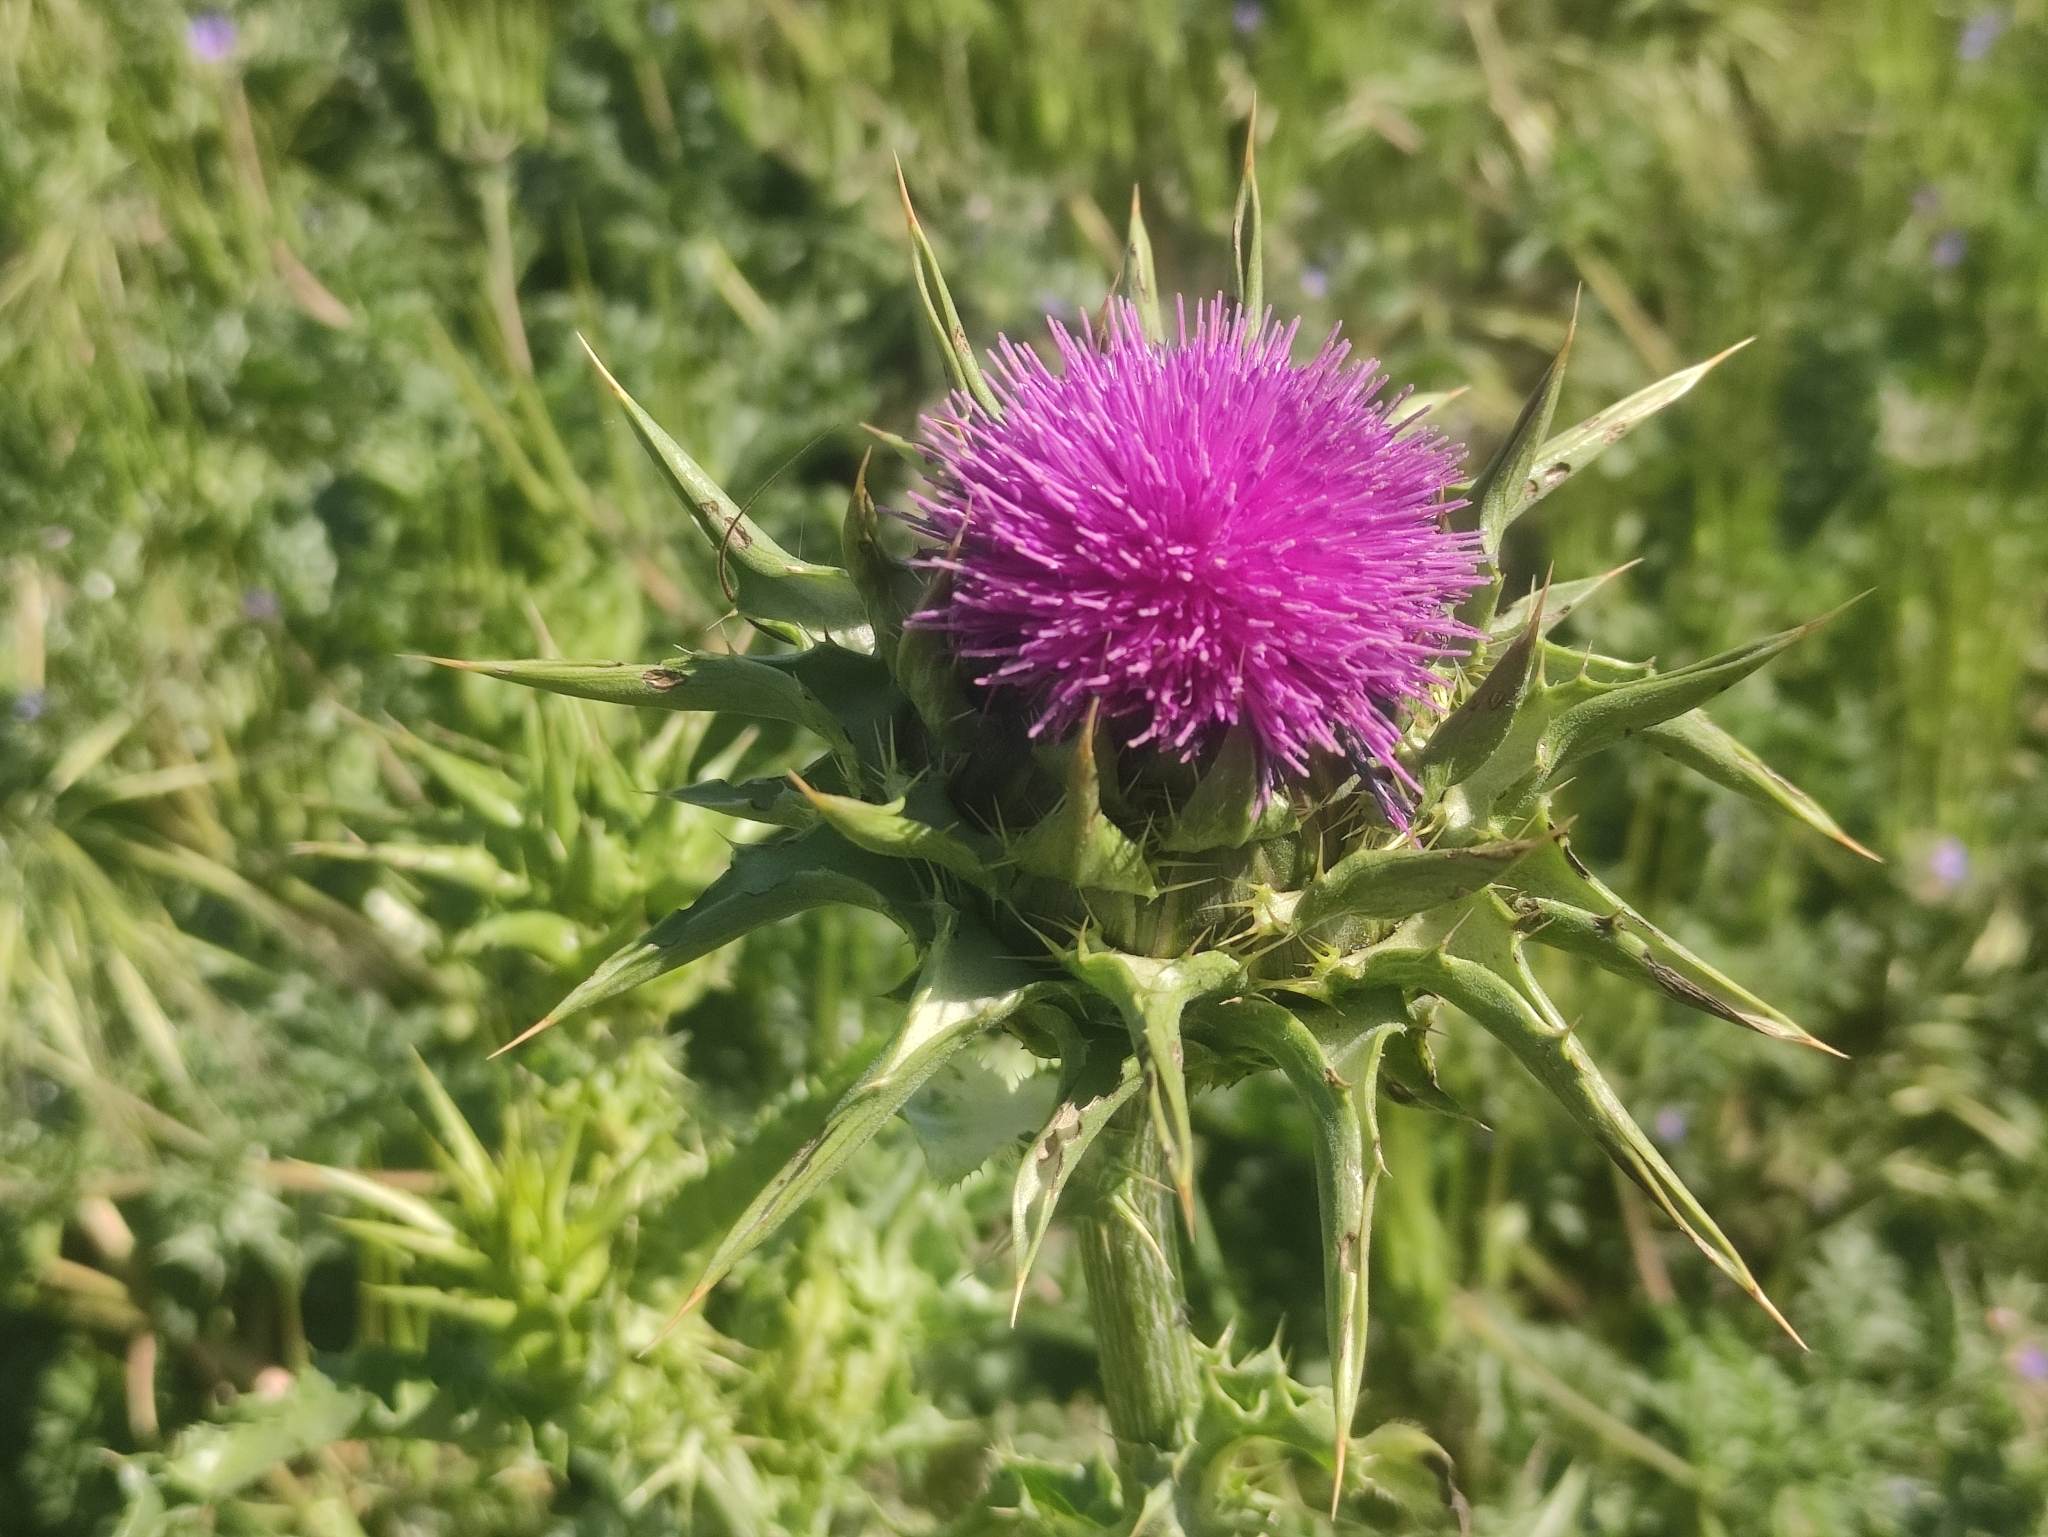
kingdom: Plantae
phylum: Tracheophyta
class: Magnoliopsida
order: Asterales
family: Asteraceae
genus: Silybum
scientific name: Silybum marianum
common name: Milk thistle
